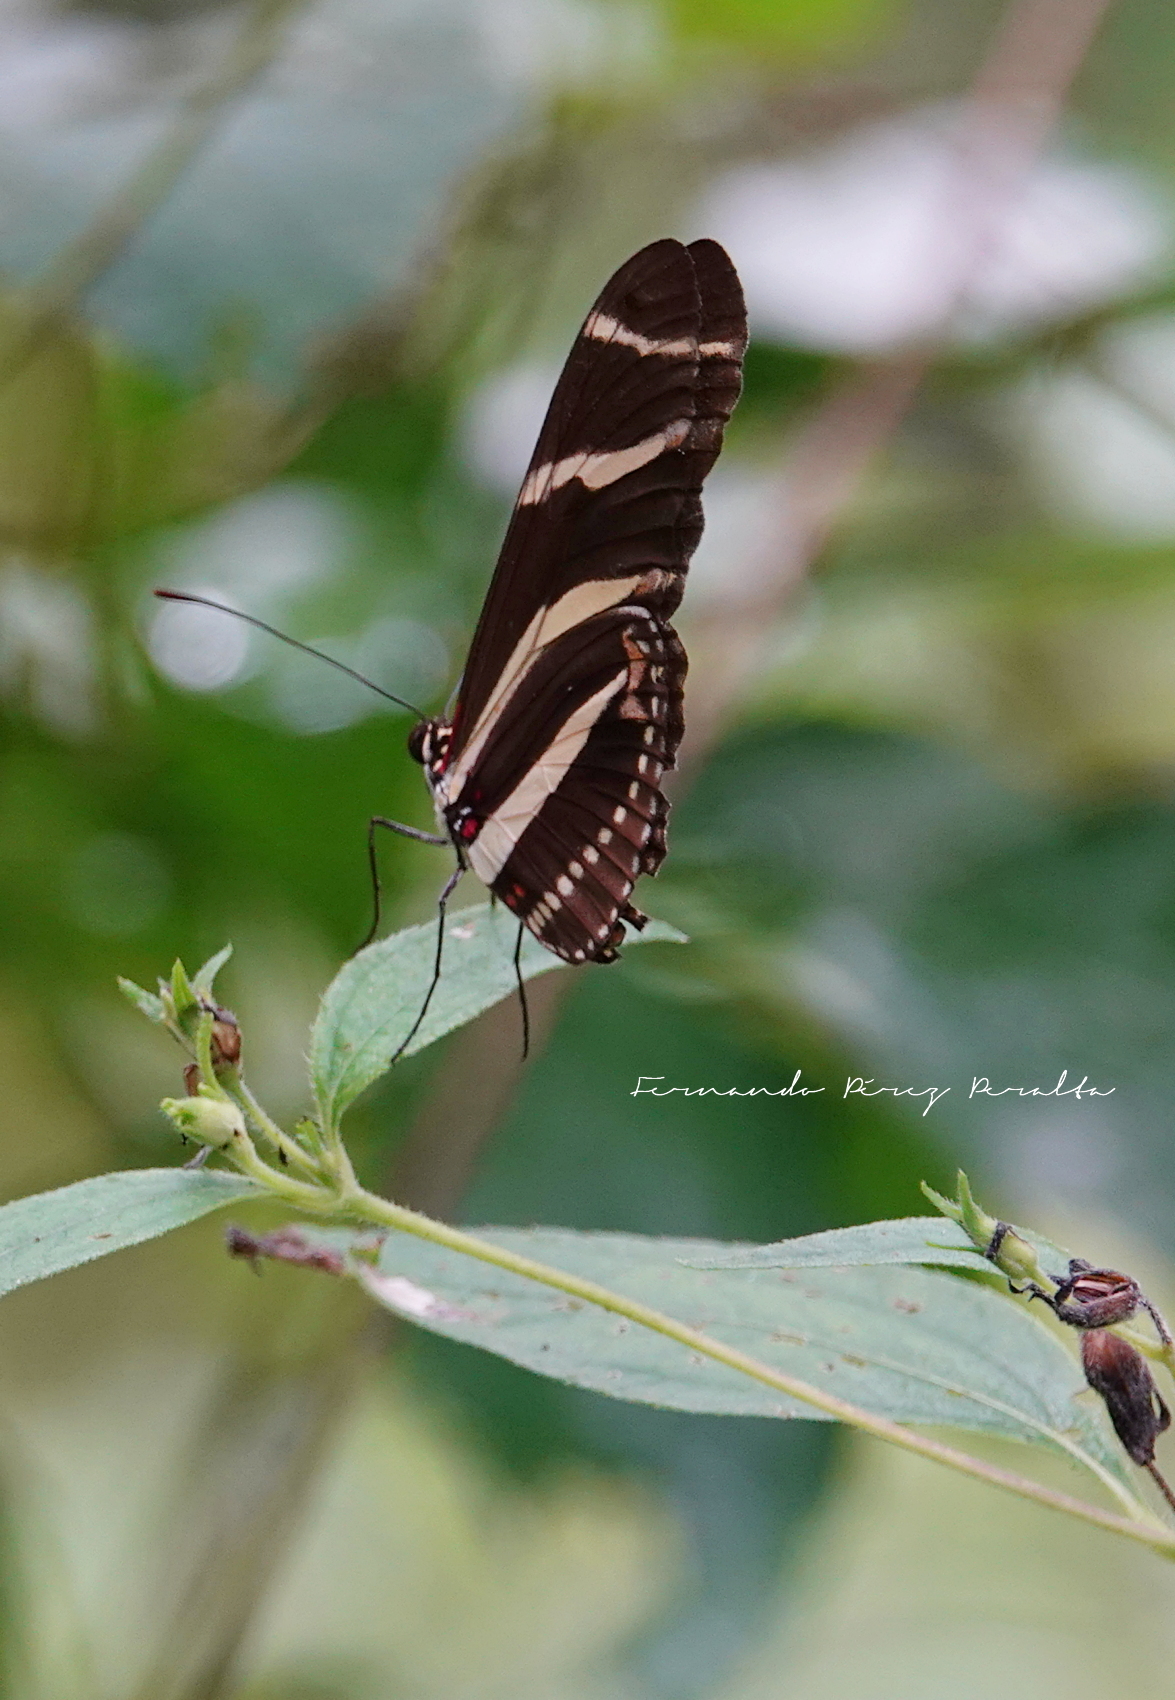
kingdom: Animalia
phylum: Arthropoda
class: Insecta
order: Lepidoptera
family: Nymphalidae
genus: Heliconius
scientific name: Heliconius charithonia
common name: Zebra long wing
